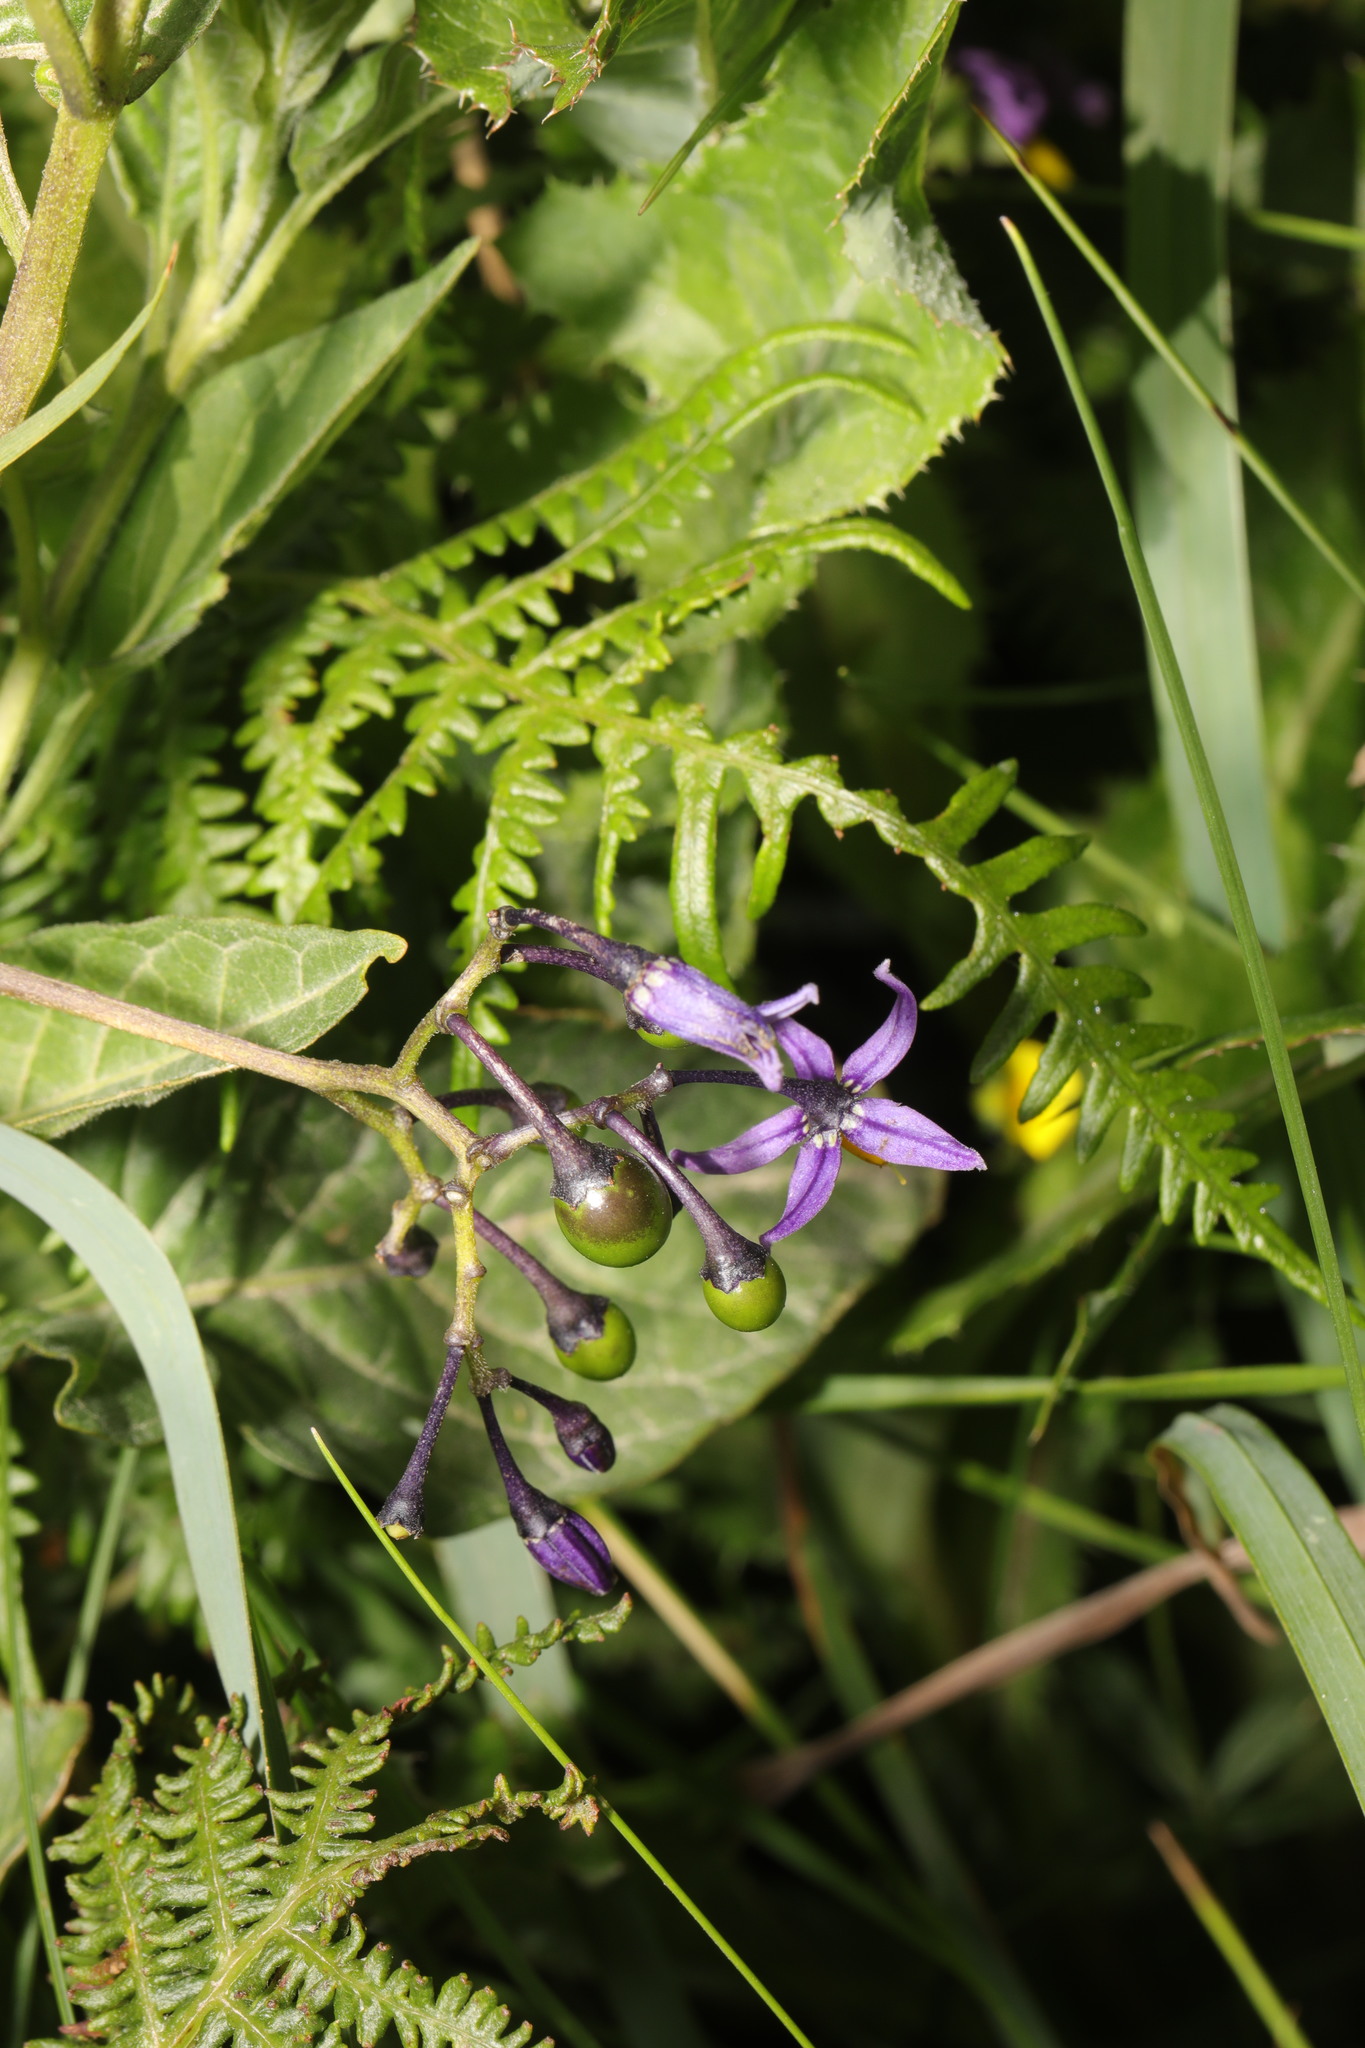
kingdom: Plantae
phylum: Tracheophyta
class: Magnoliopsida
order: Solanales
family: Solanaceae
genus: Solanum
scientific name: Solanum dulcamara
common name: Climbing nightshade
